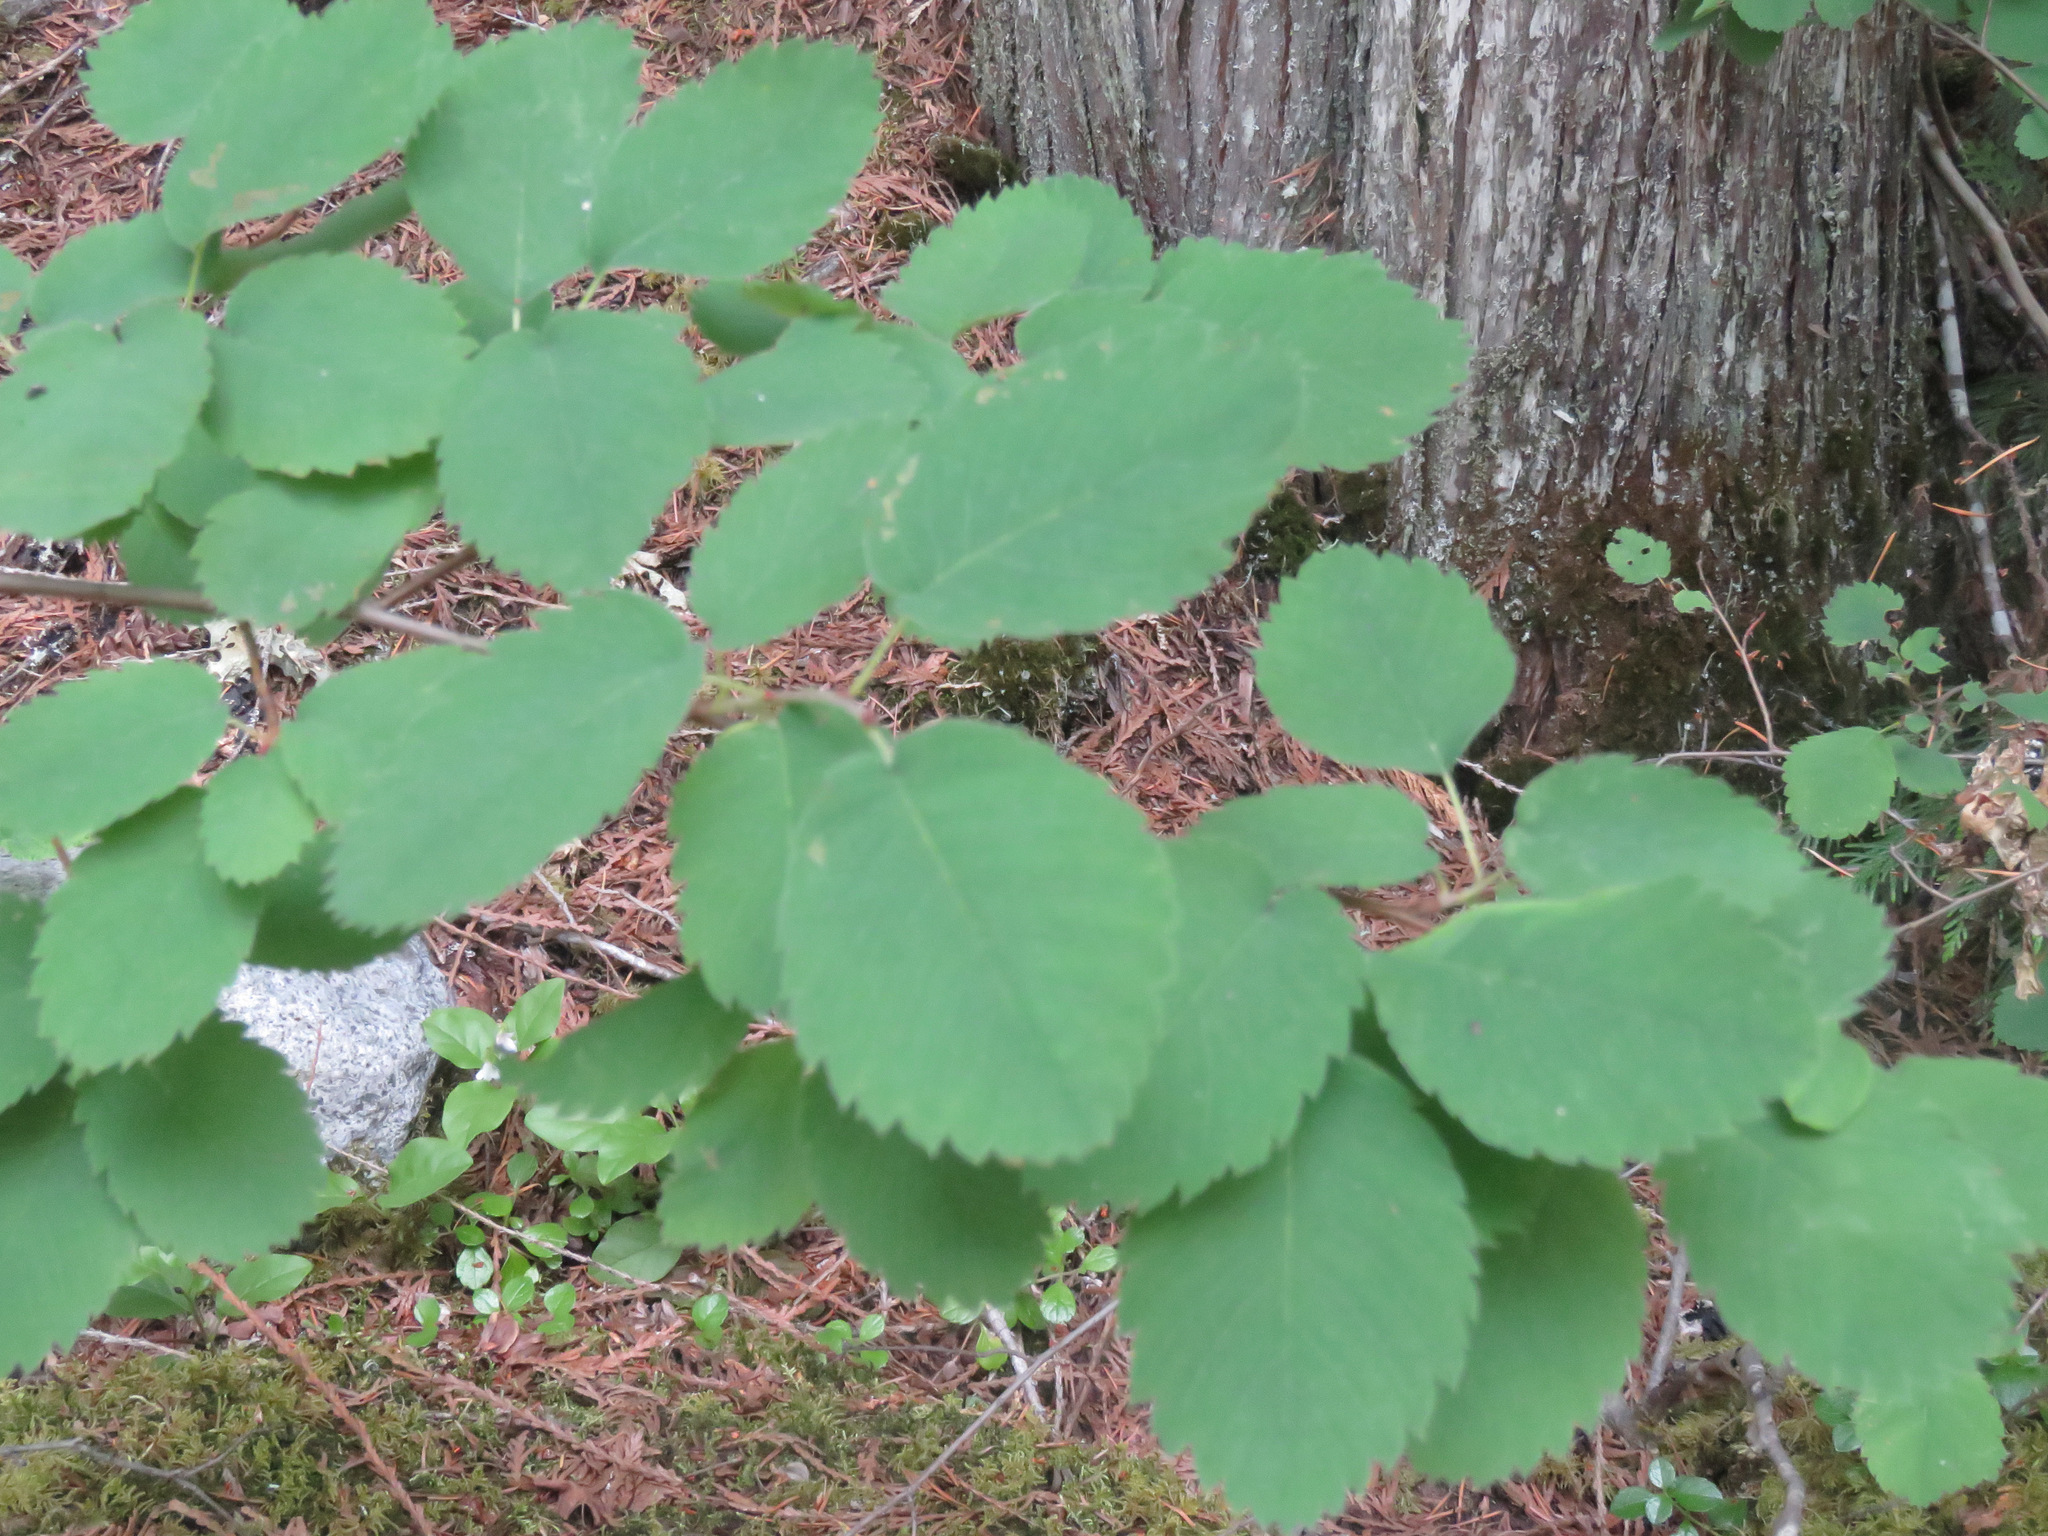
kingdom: Plantae
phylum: Tracheophyta
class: Magnoliopsida
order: Rosales
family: Rosaceae
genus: Amelanchier
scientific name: Amelanchier alnifolia
